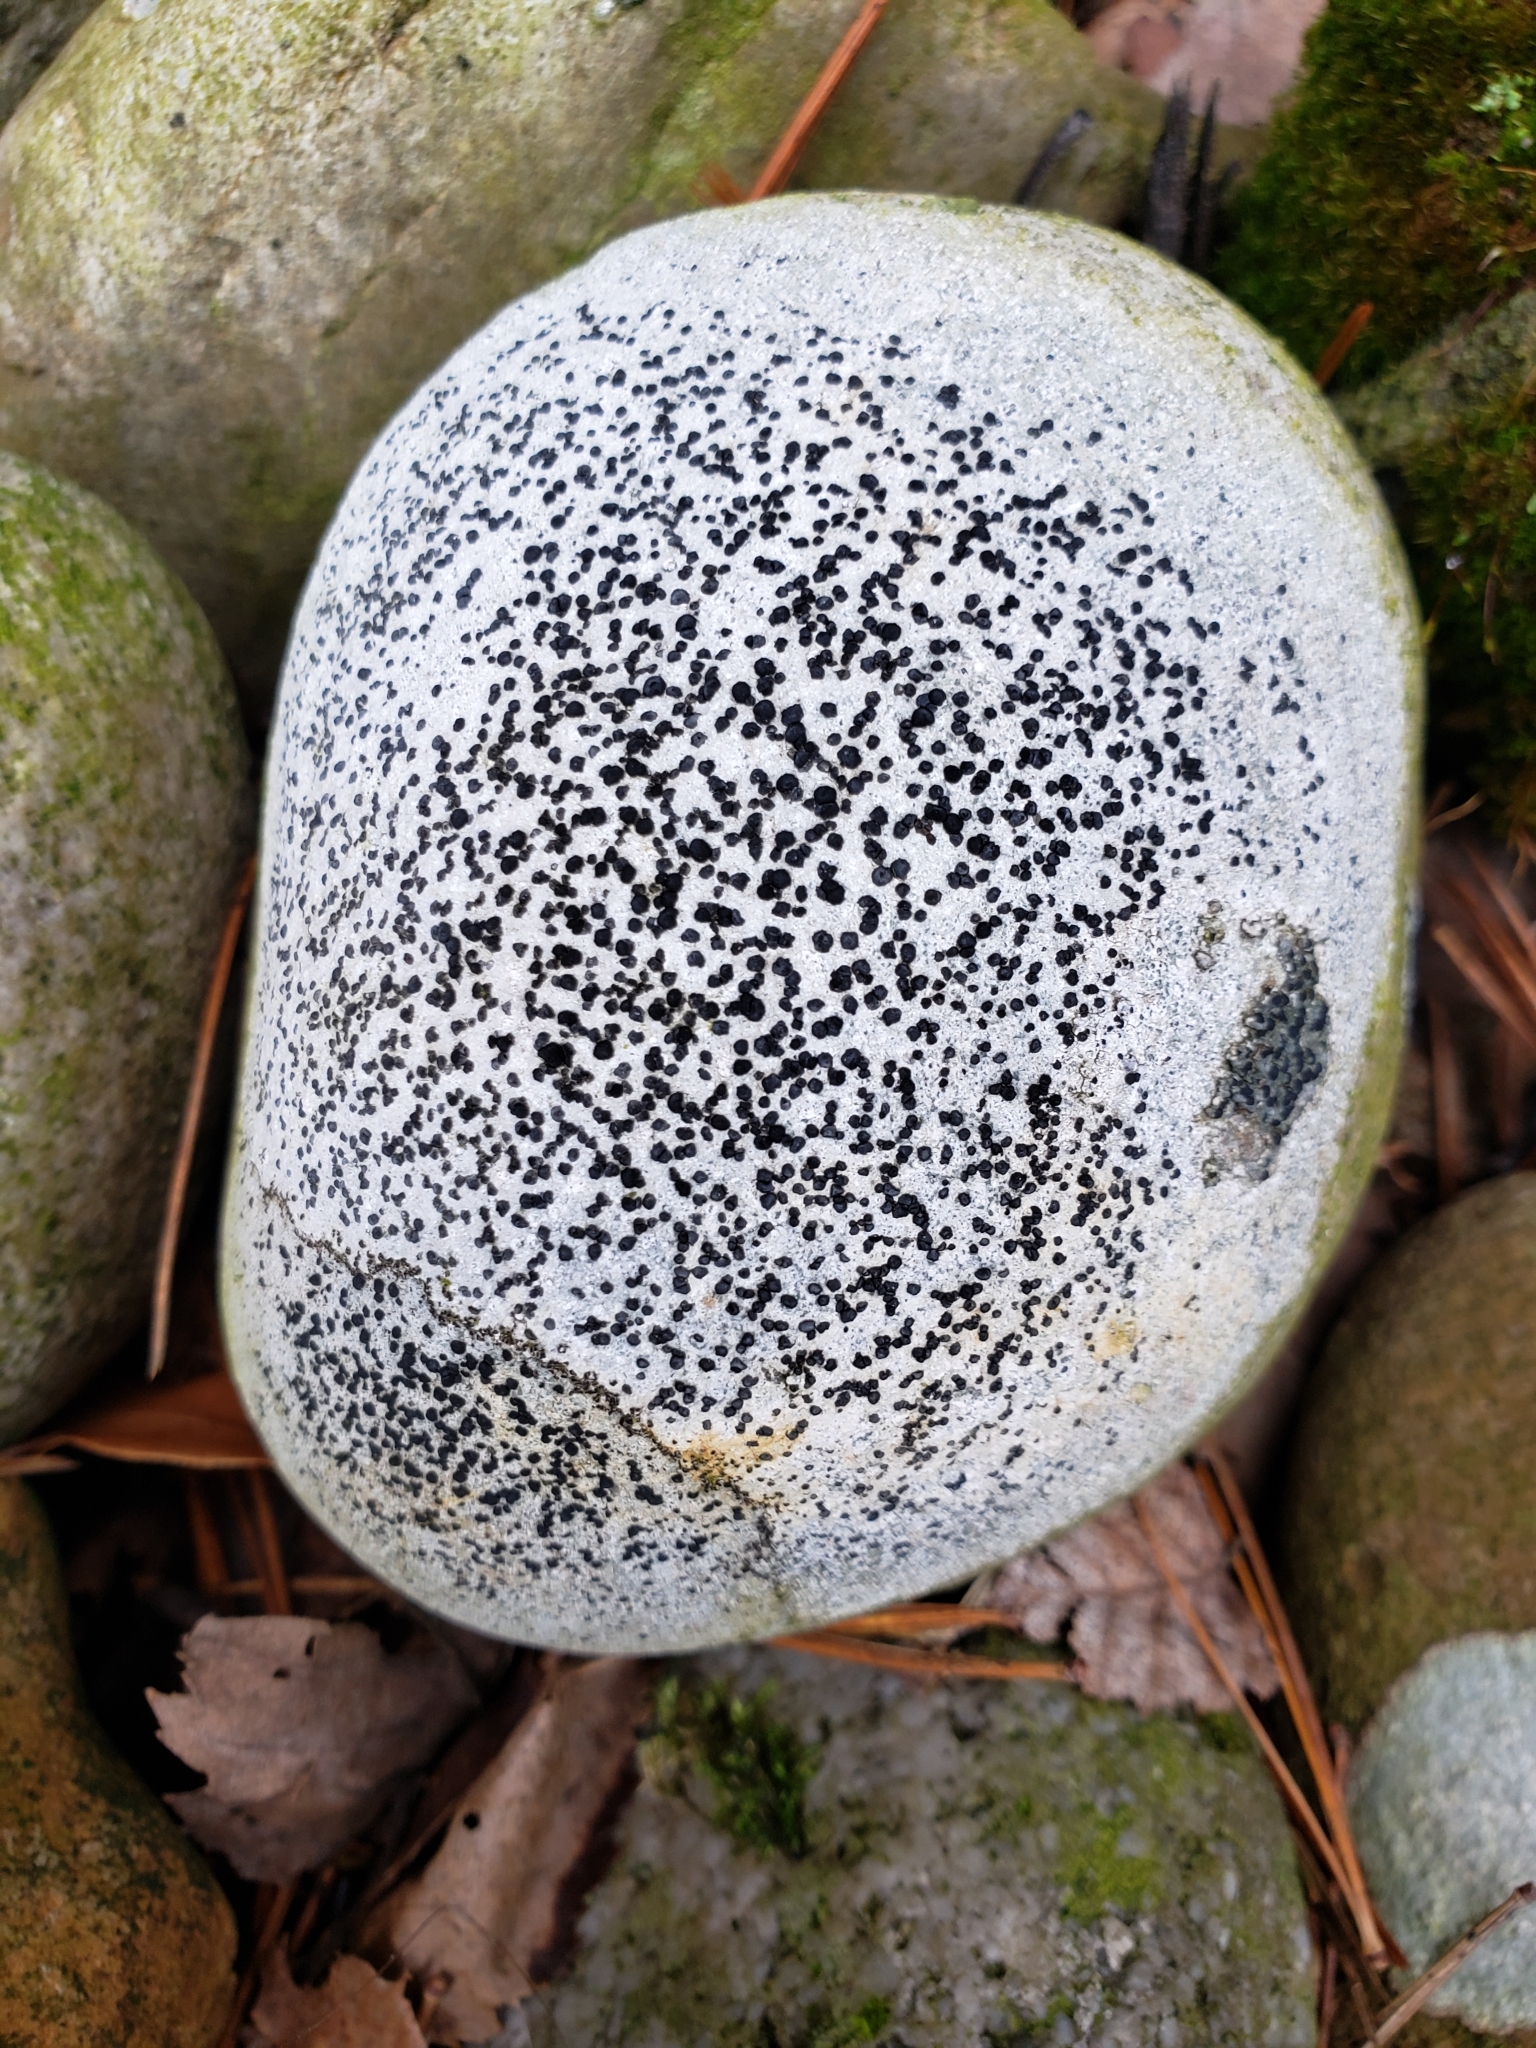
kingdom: Fungi
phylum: Ascomycota
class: Lecanoromycetes
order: Lecideales
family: Lecideaceae
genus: Porpidia
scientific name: Porpidia albocaerulescens
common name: Smokey-eyed boulder lichen
